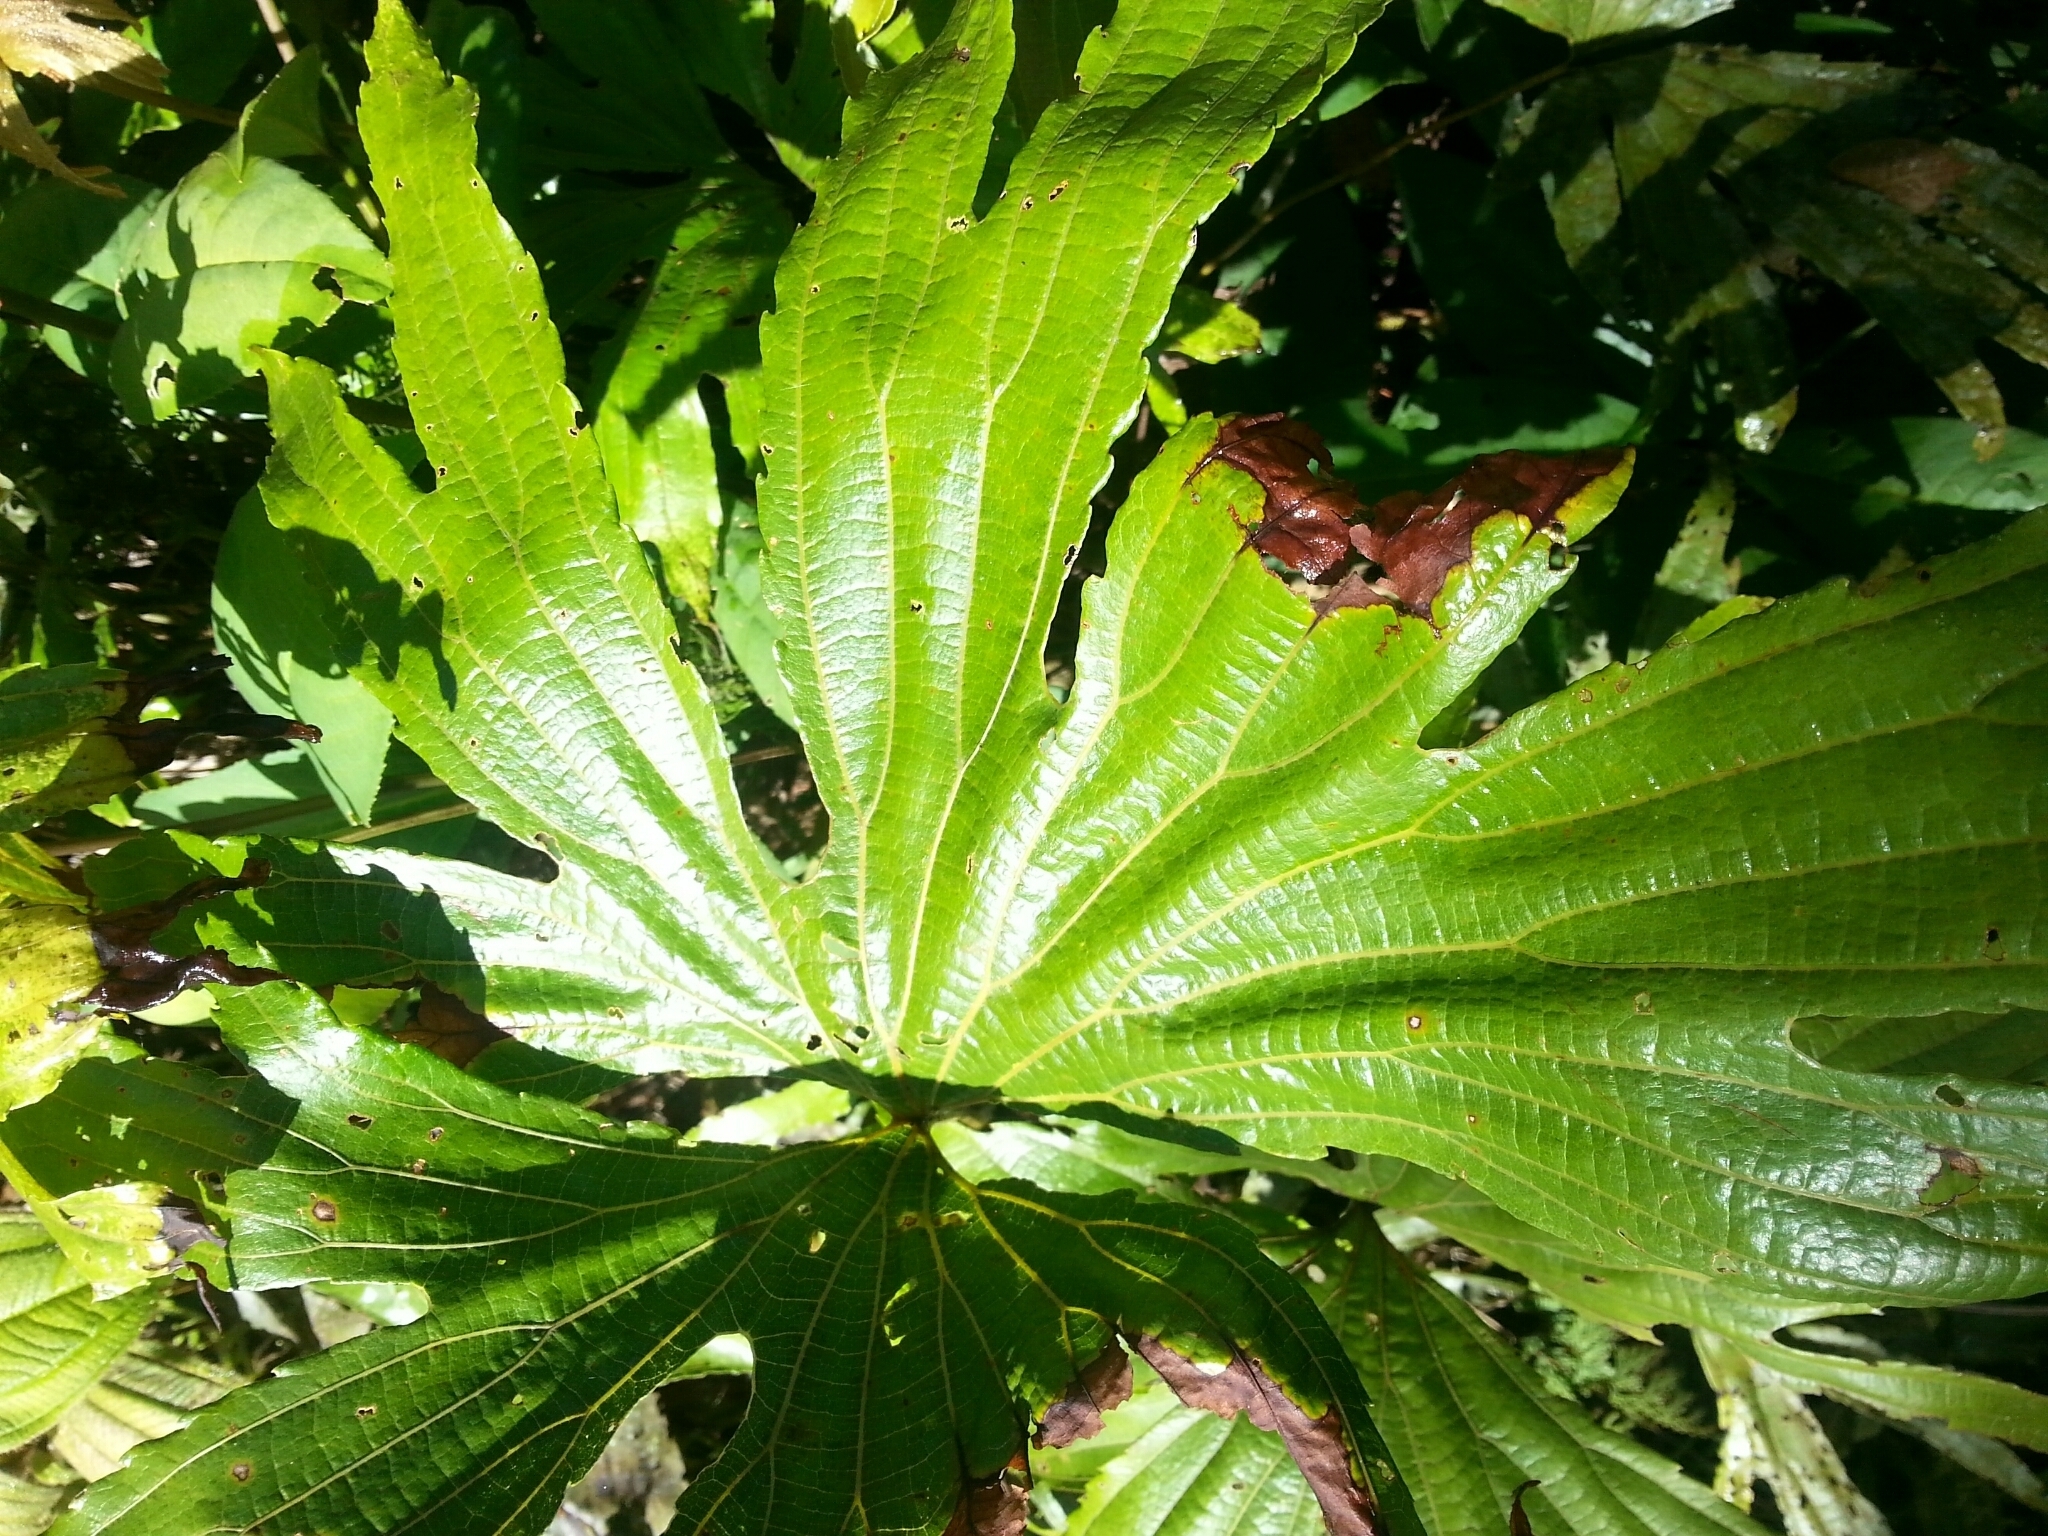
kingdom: Plantae
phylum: Tracheophyta
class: Polypodiopsida
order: Gleicheniales
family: Dipteridaceae
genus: Dipteris
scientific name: Dipteris conjugata
